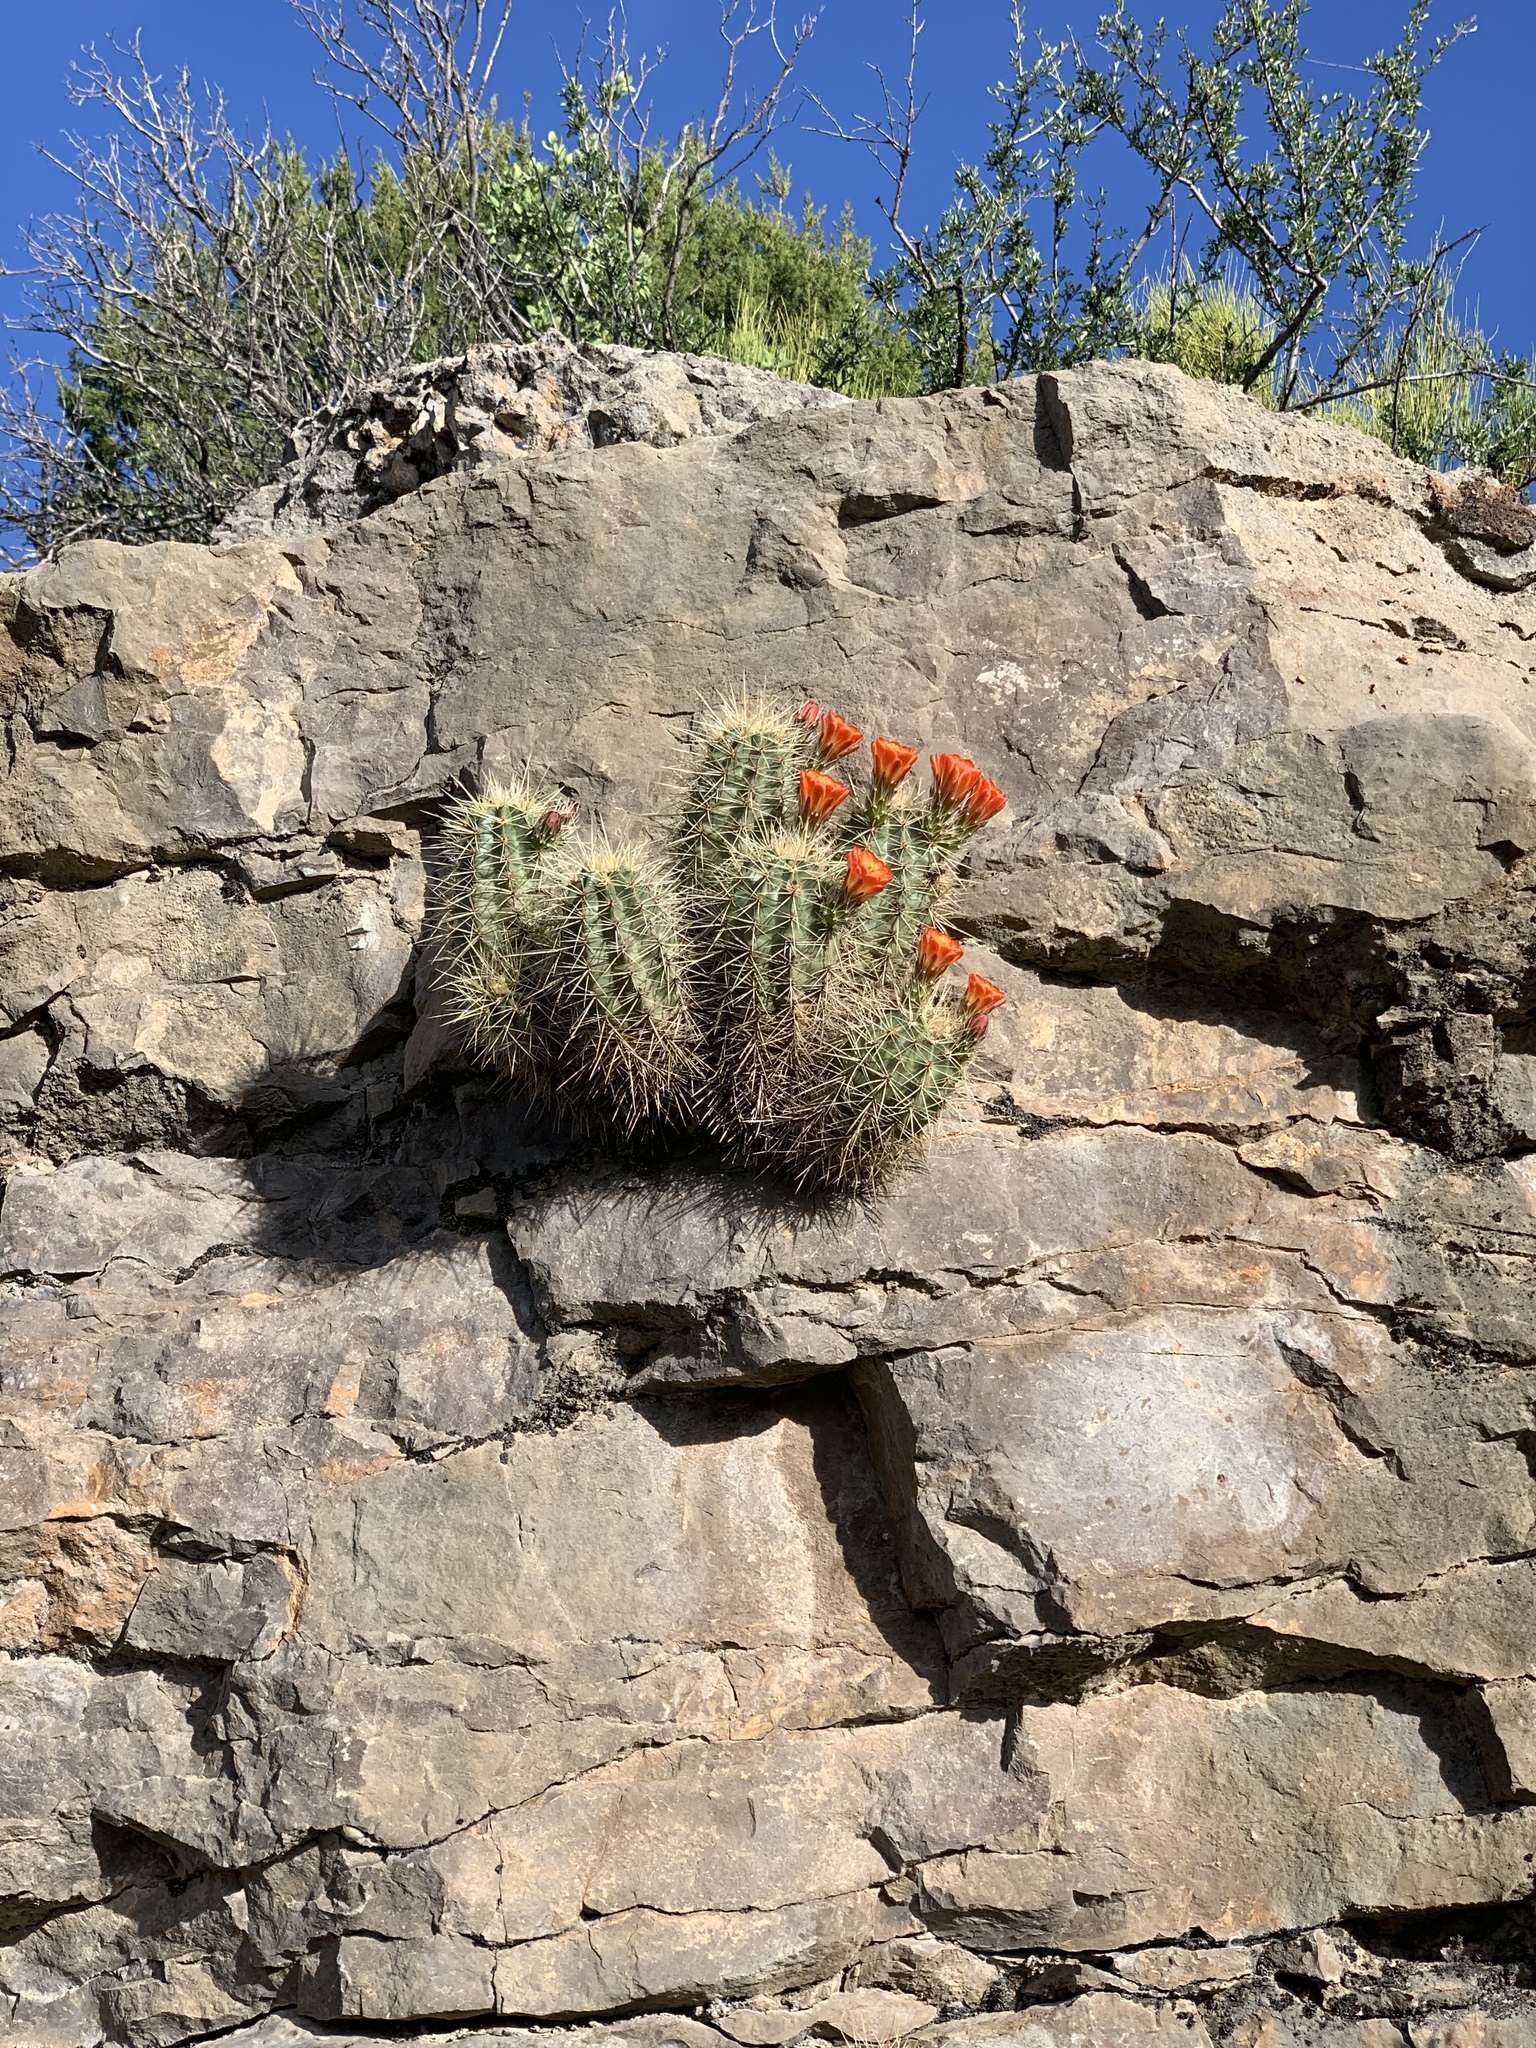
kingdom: Plantae
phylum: Tracheophyta
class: Magnoliopsida
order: Caryophyllales
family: Cactaceae
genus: Echinocereus
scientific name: Echinocereus coccineus
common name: Scarlet hedgehog cactus
